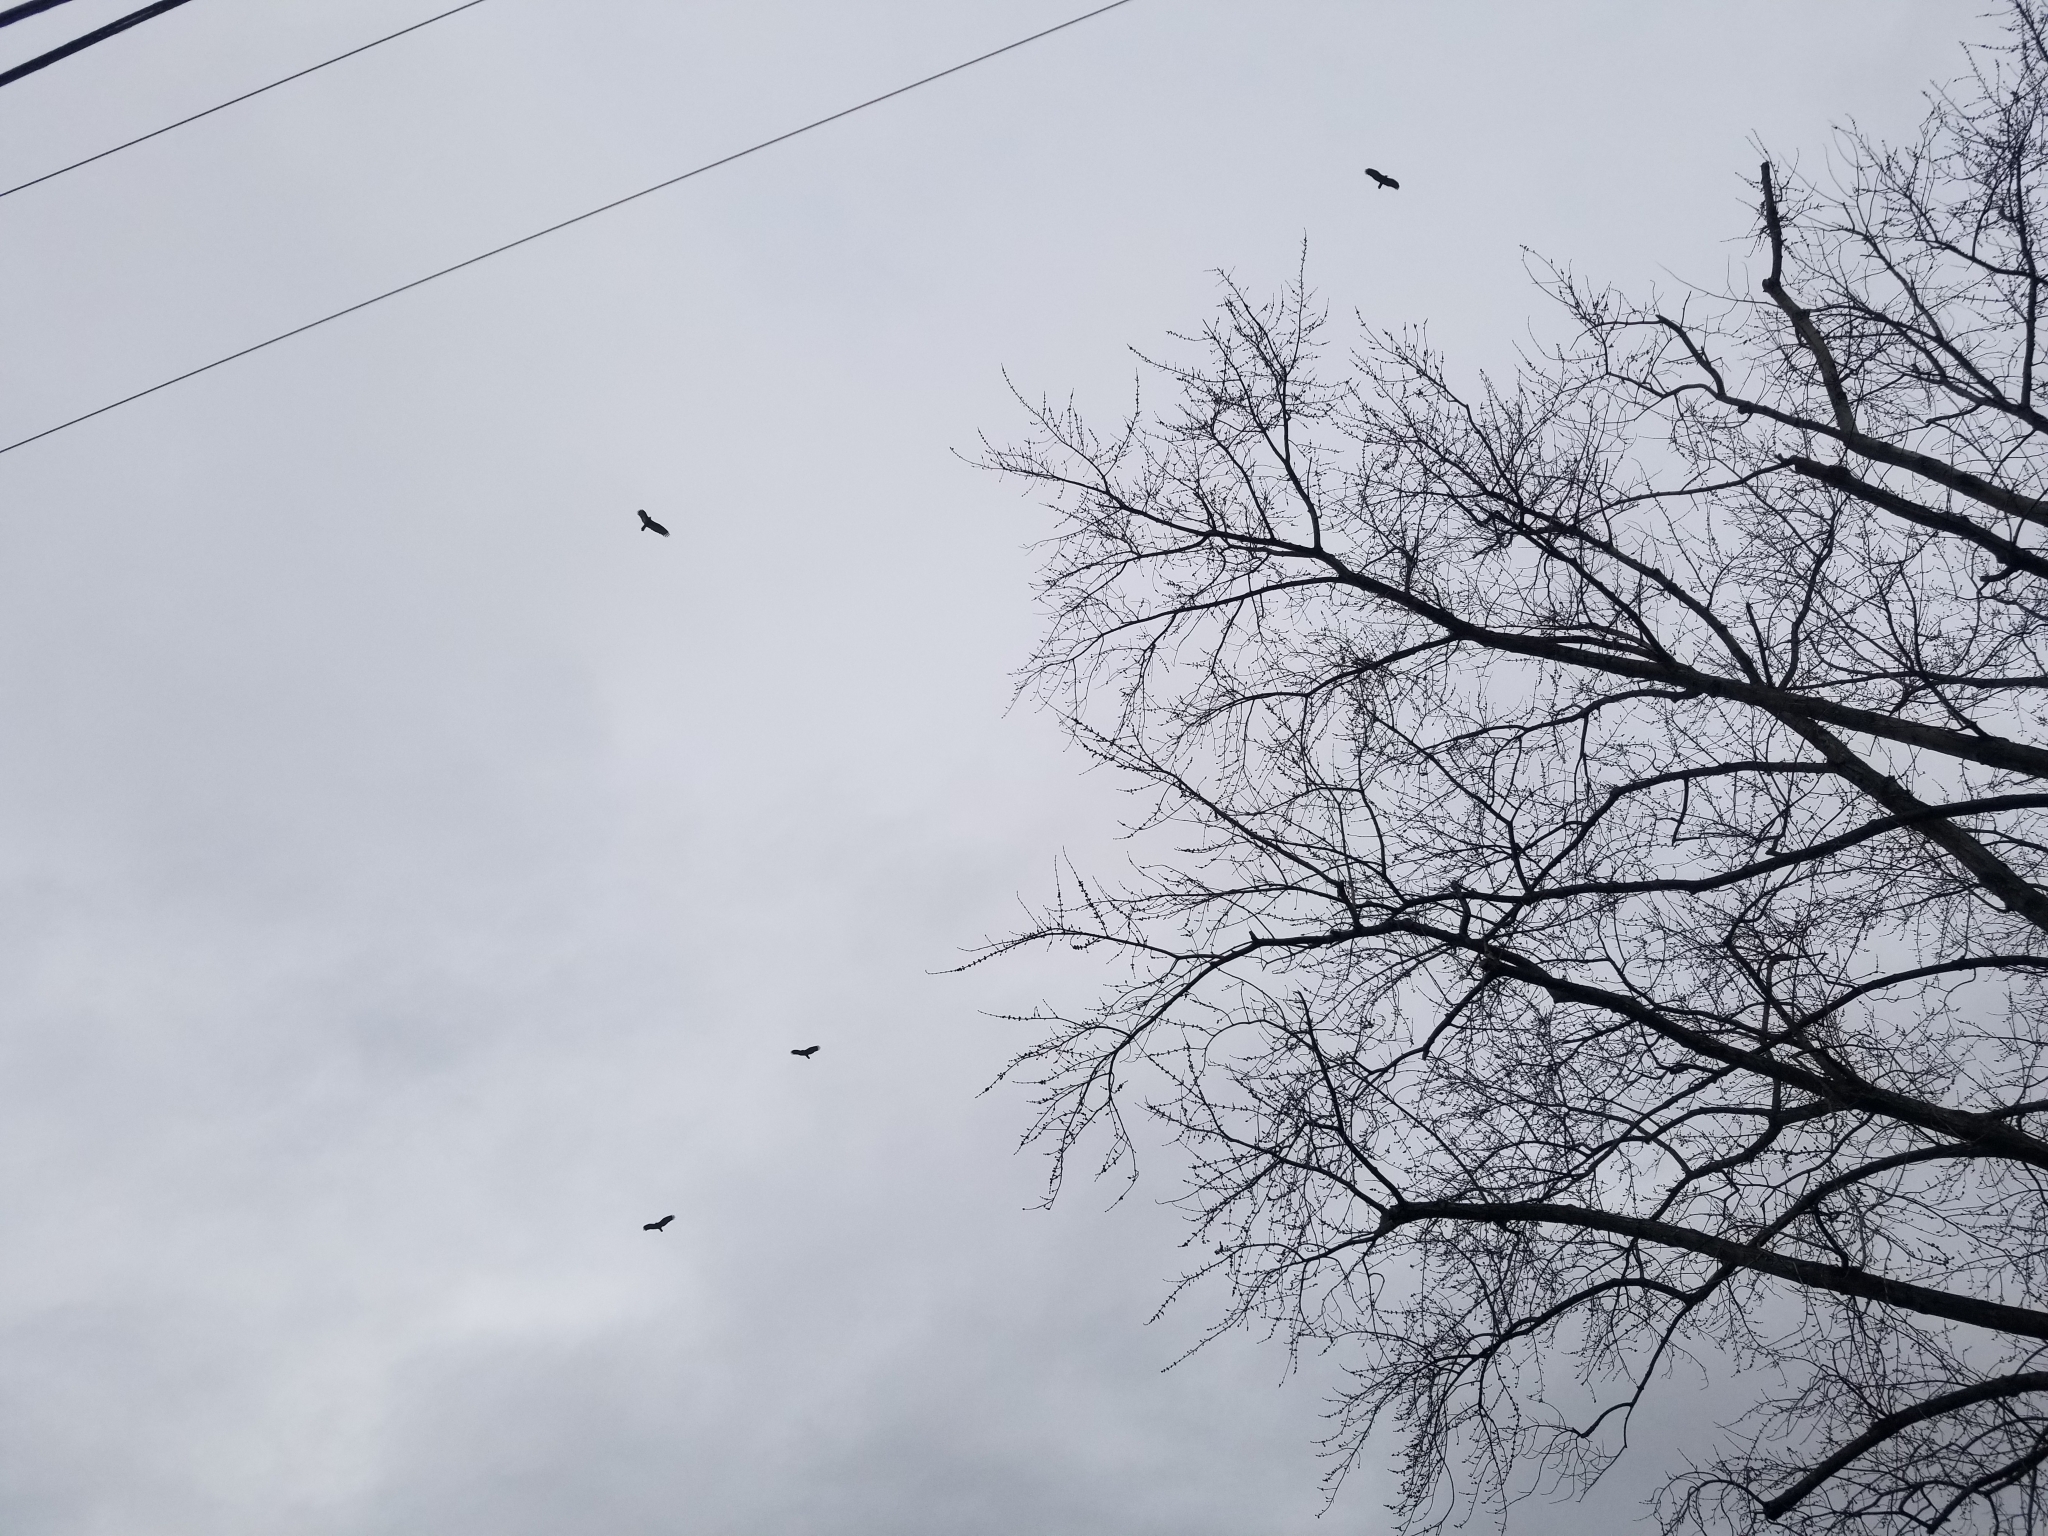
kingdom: Animalia
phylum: Chordata
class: Aves
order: Accipitriformes
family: Cathartidae
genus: Cathartes
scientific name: Cathartes aura
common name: Turkey vulture
